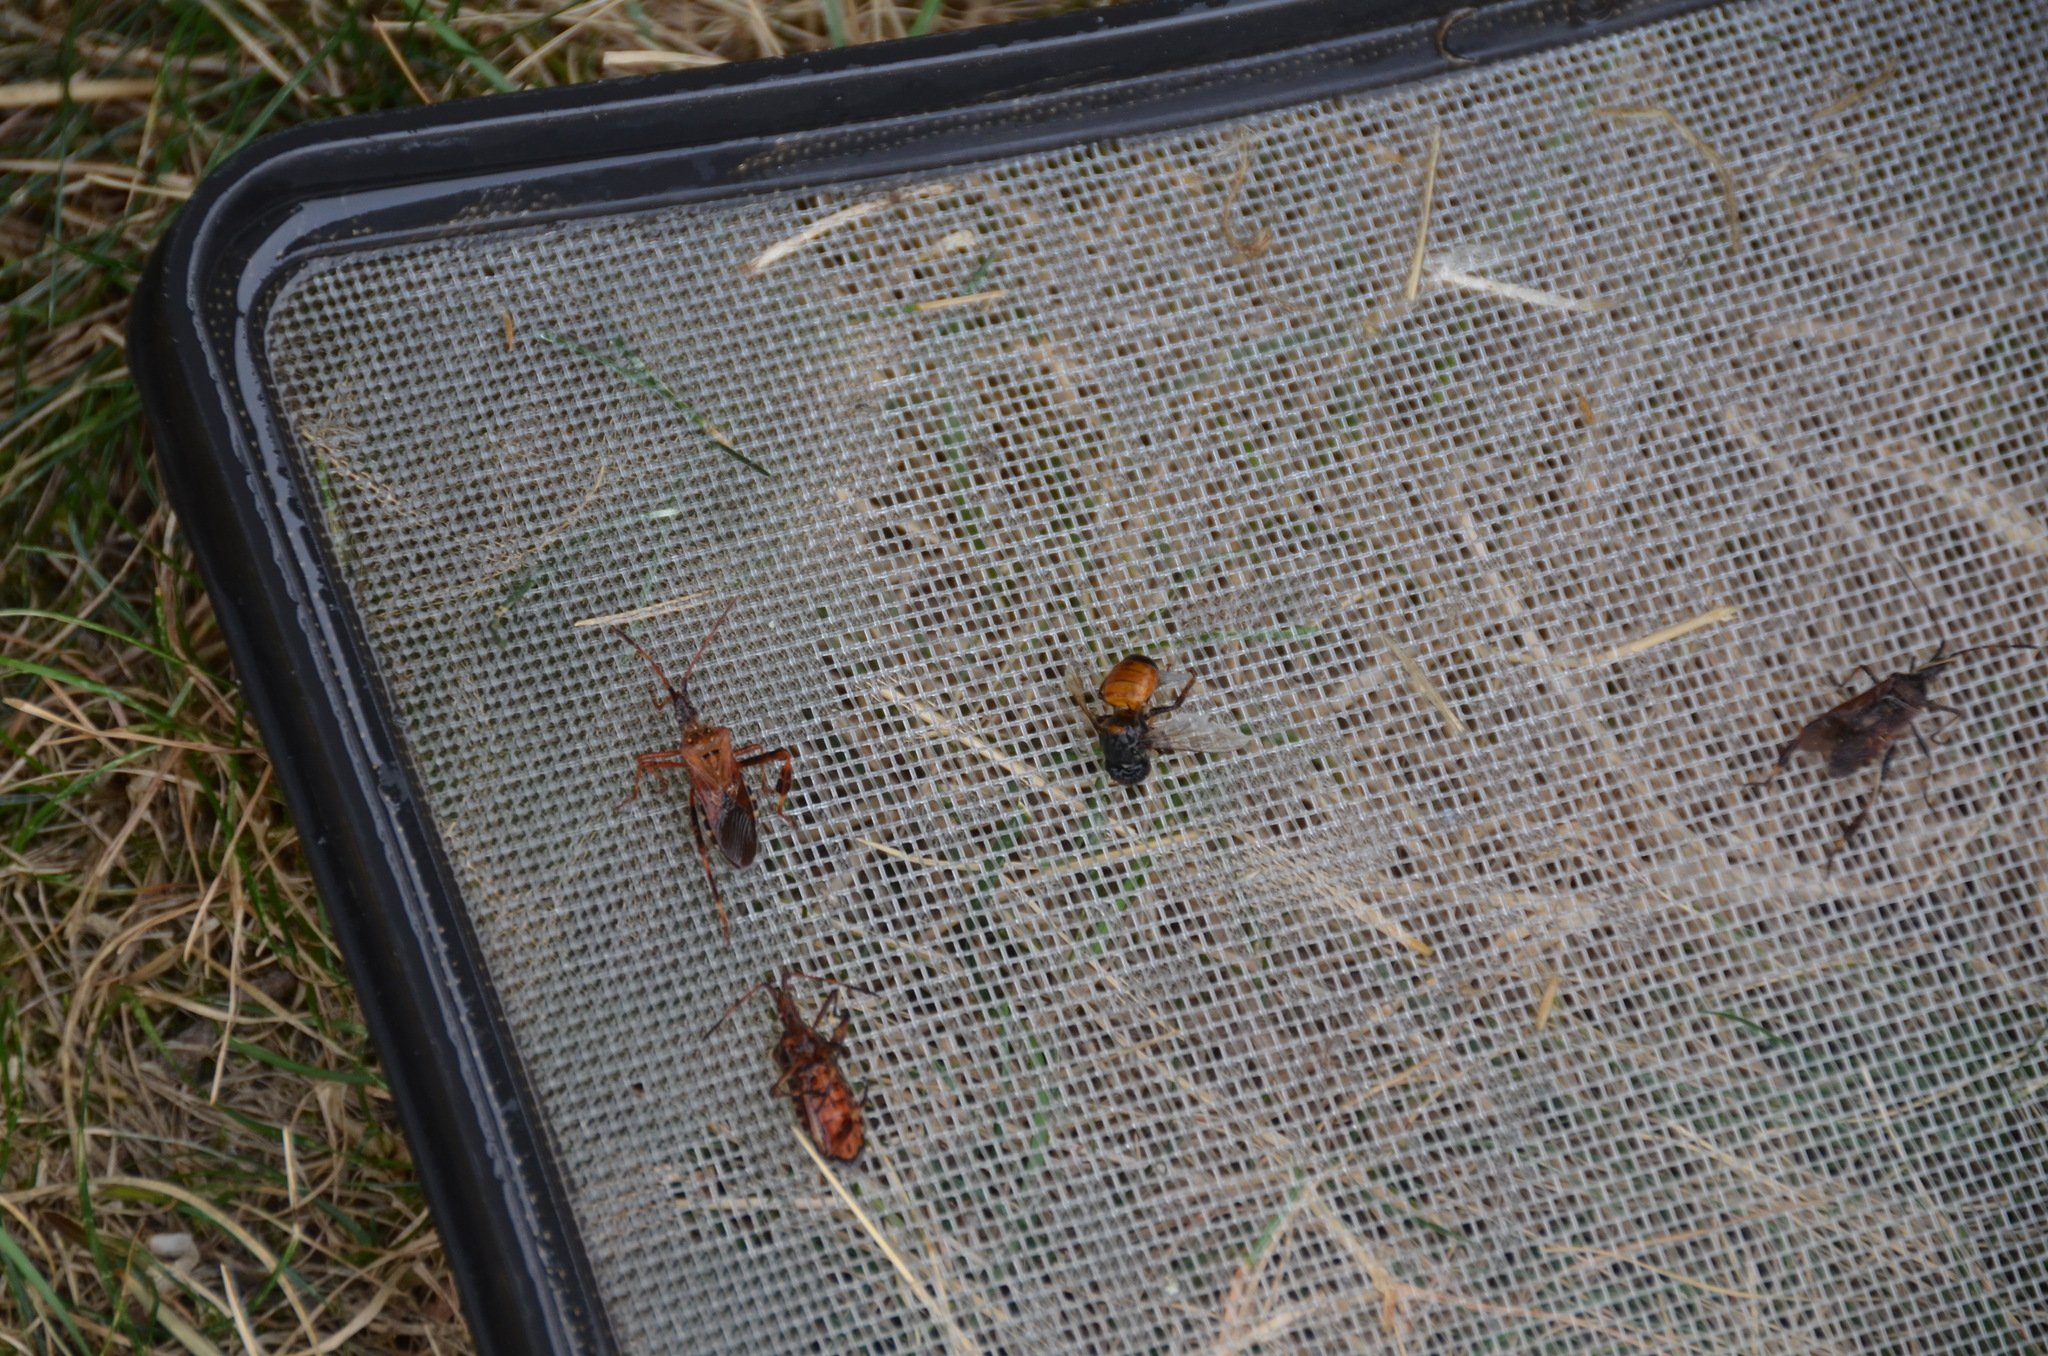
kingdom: Animalia
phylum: Arthropoda
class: Insecta
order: Hemiptera
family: Coreidae
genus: Leptoglossus
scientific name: Leptoglossus occidentalis
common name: Western conifer-seed bug
